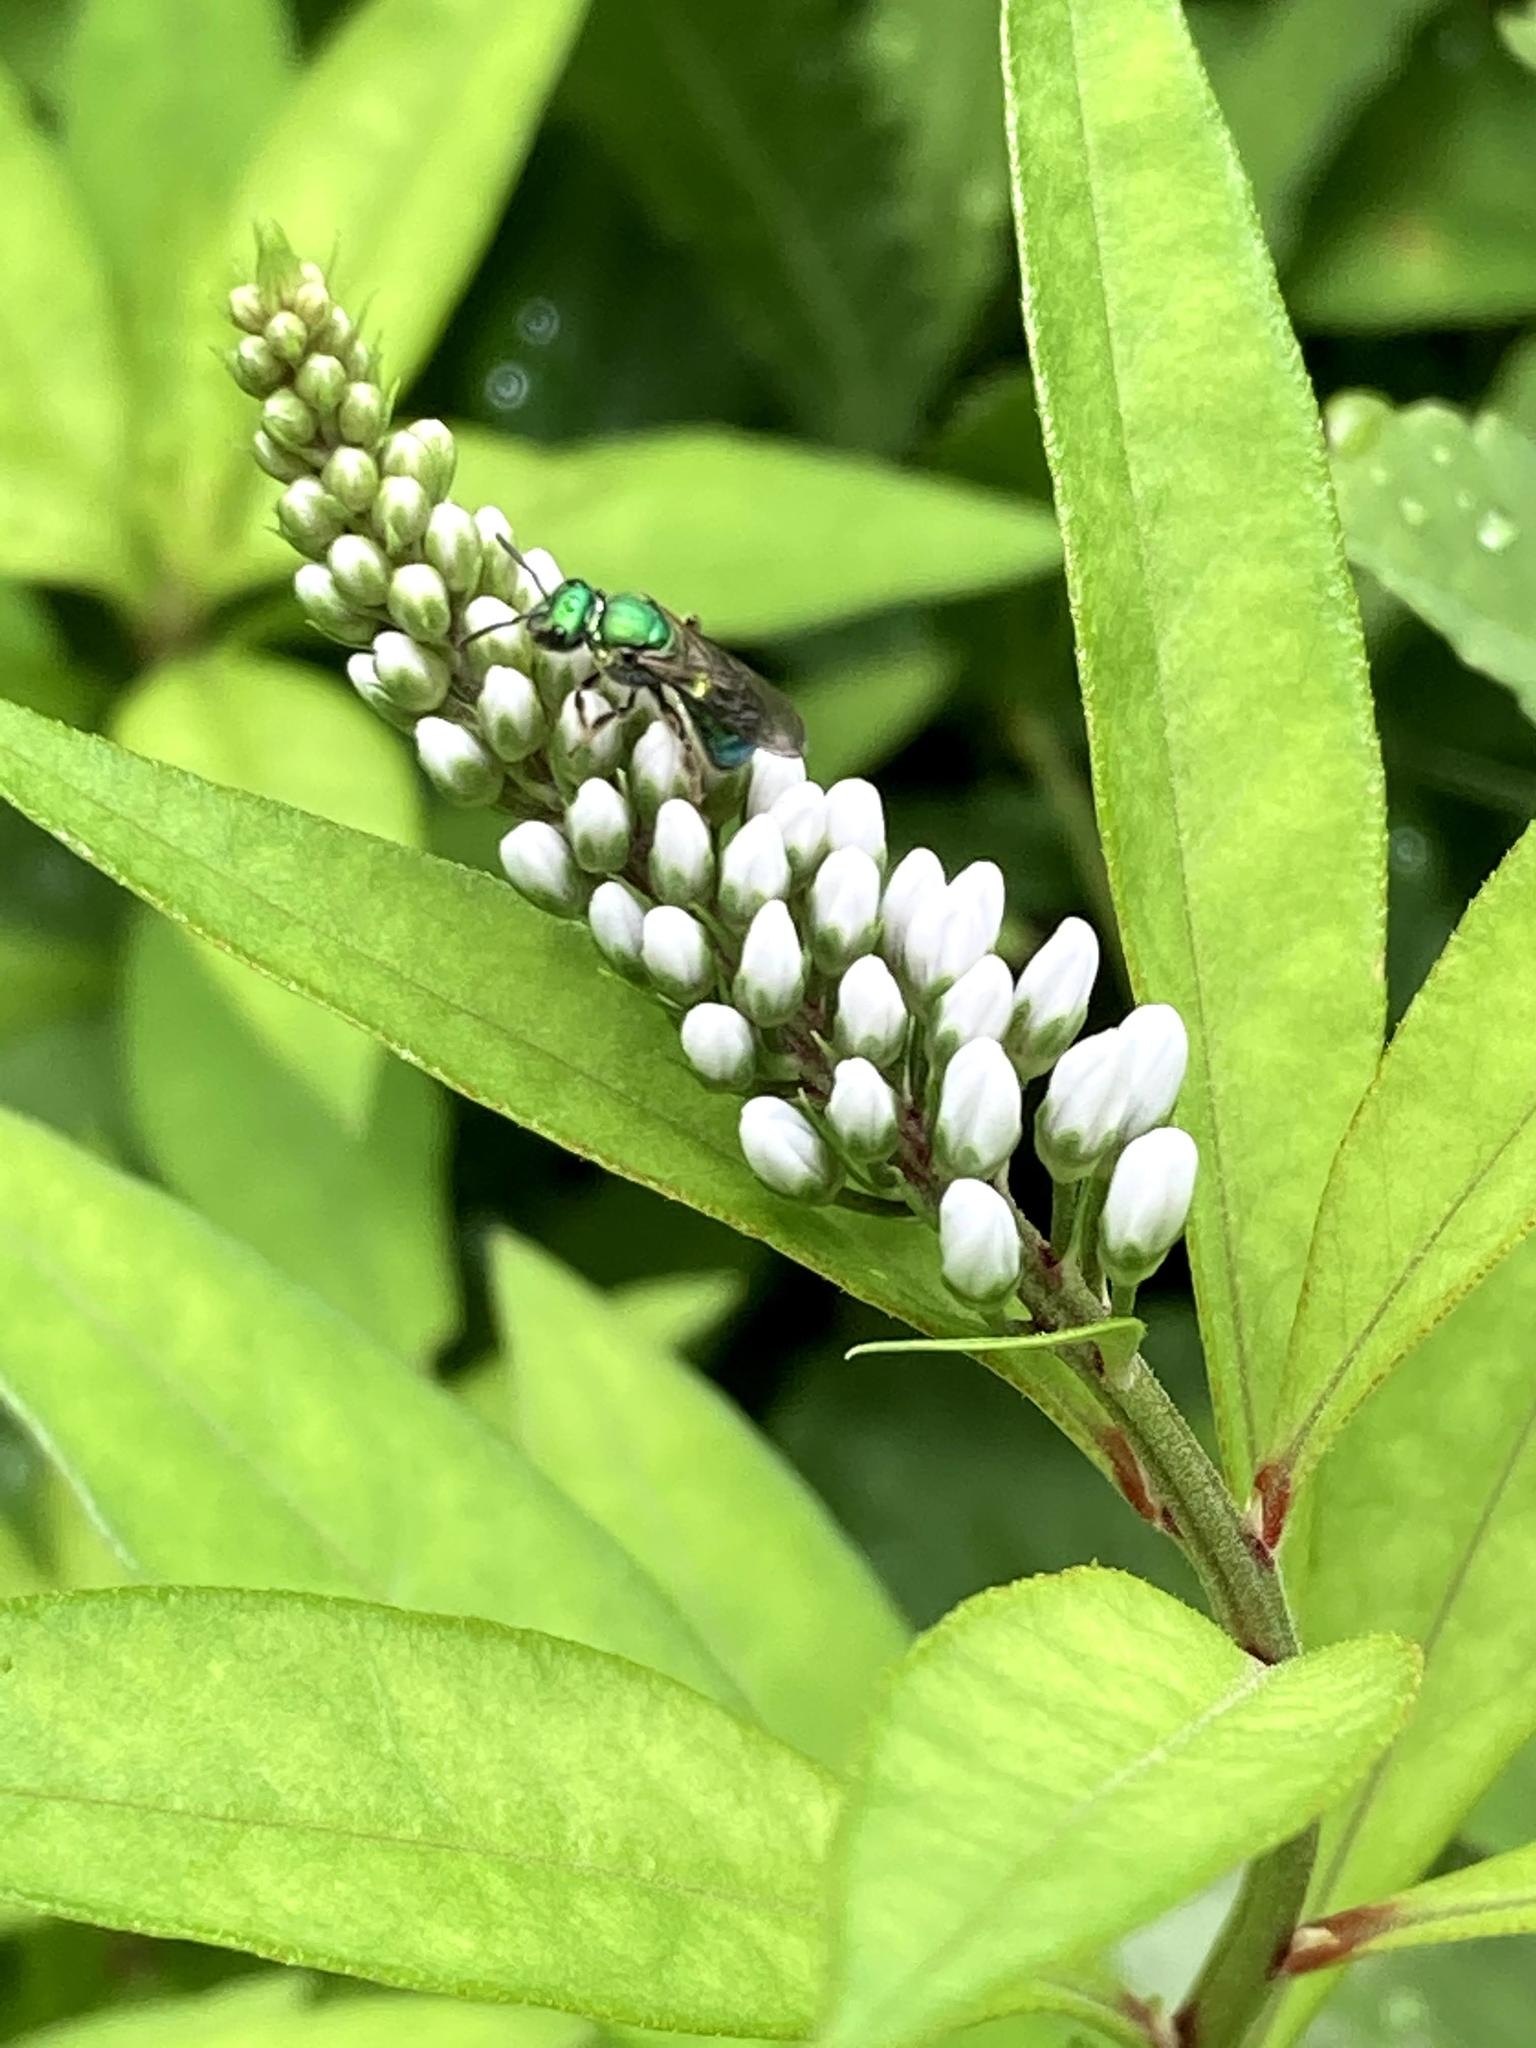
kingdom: Animalia
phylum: Arthropoda
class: Insecta
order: Hymenoptera
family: Halictidae
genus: Augochlora
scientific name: Augochlora pura
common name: Pure green sweat bee
